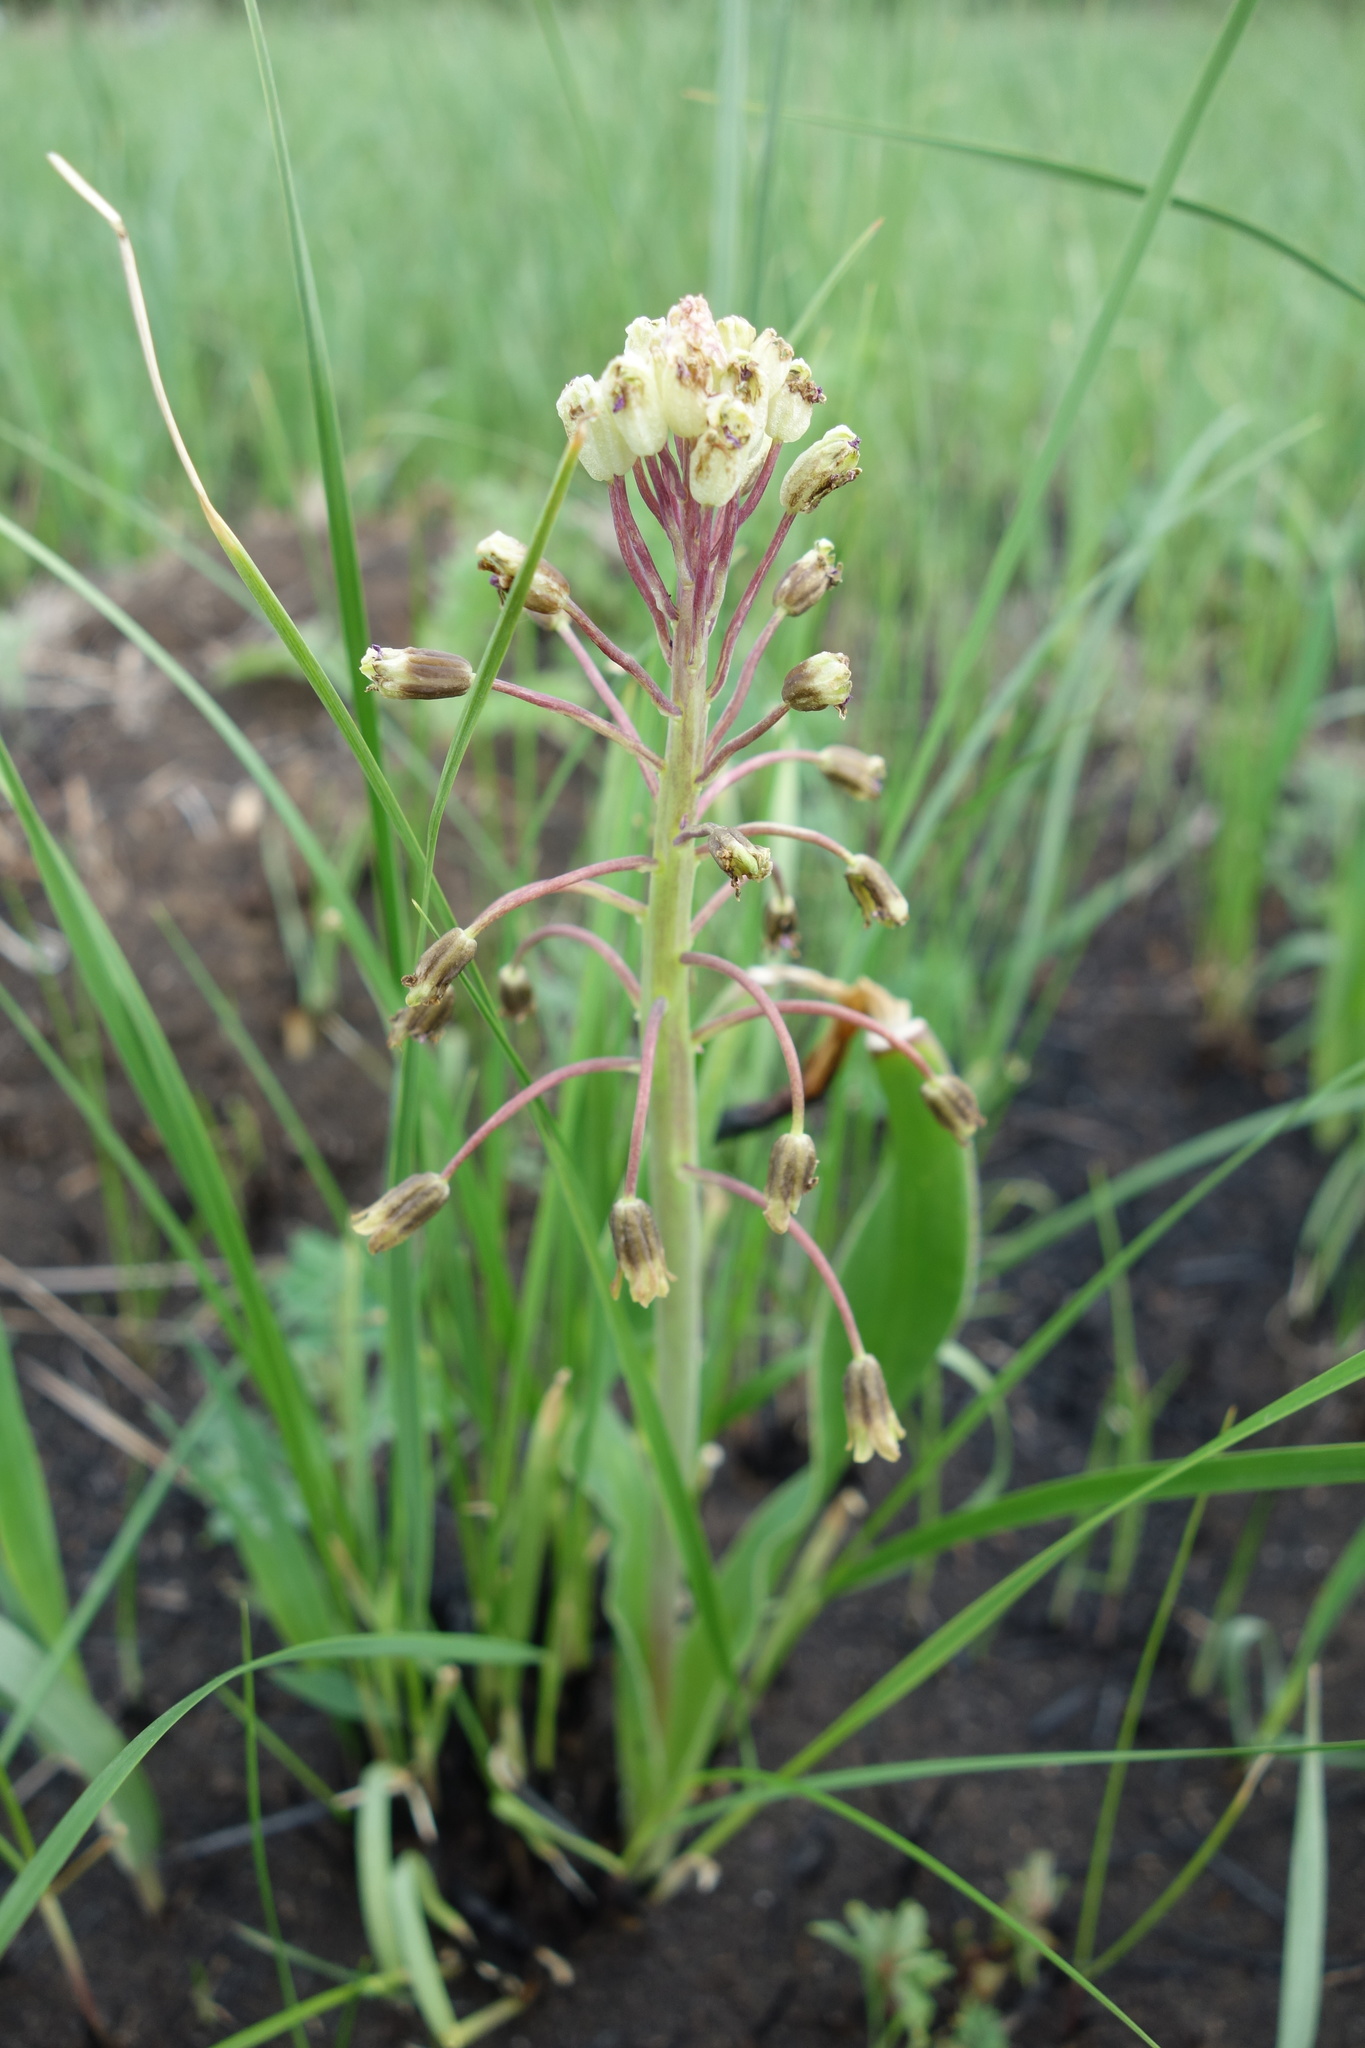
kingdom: Plantae
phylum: Tracheophyta
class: Liliopsida
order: Asparagales
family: Asparagaceae
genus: Bellevalia
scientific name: Bellevalia speciosa
